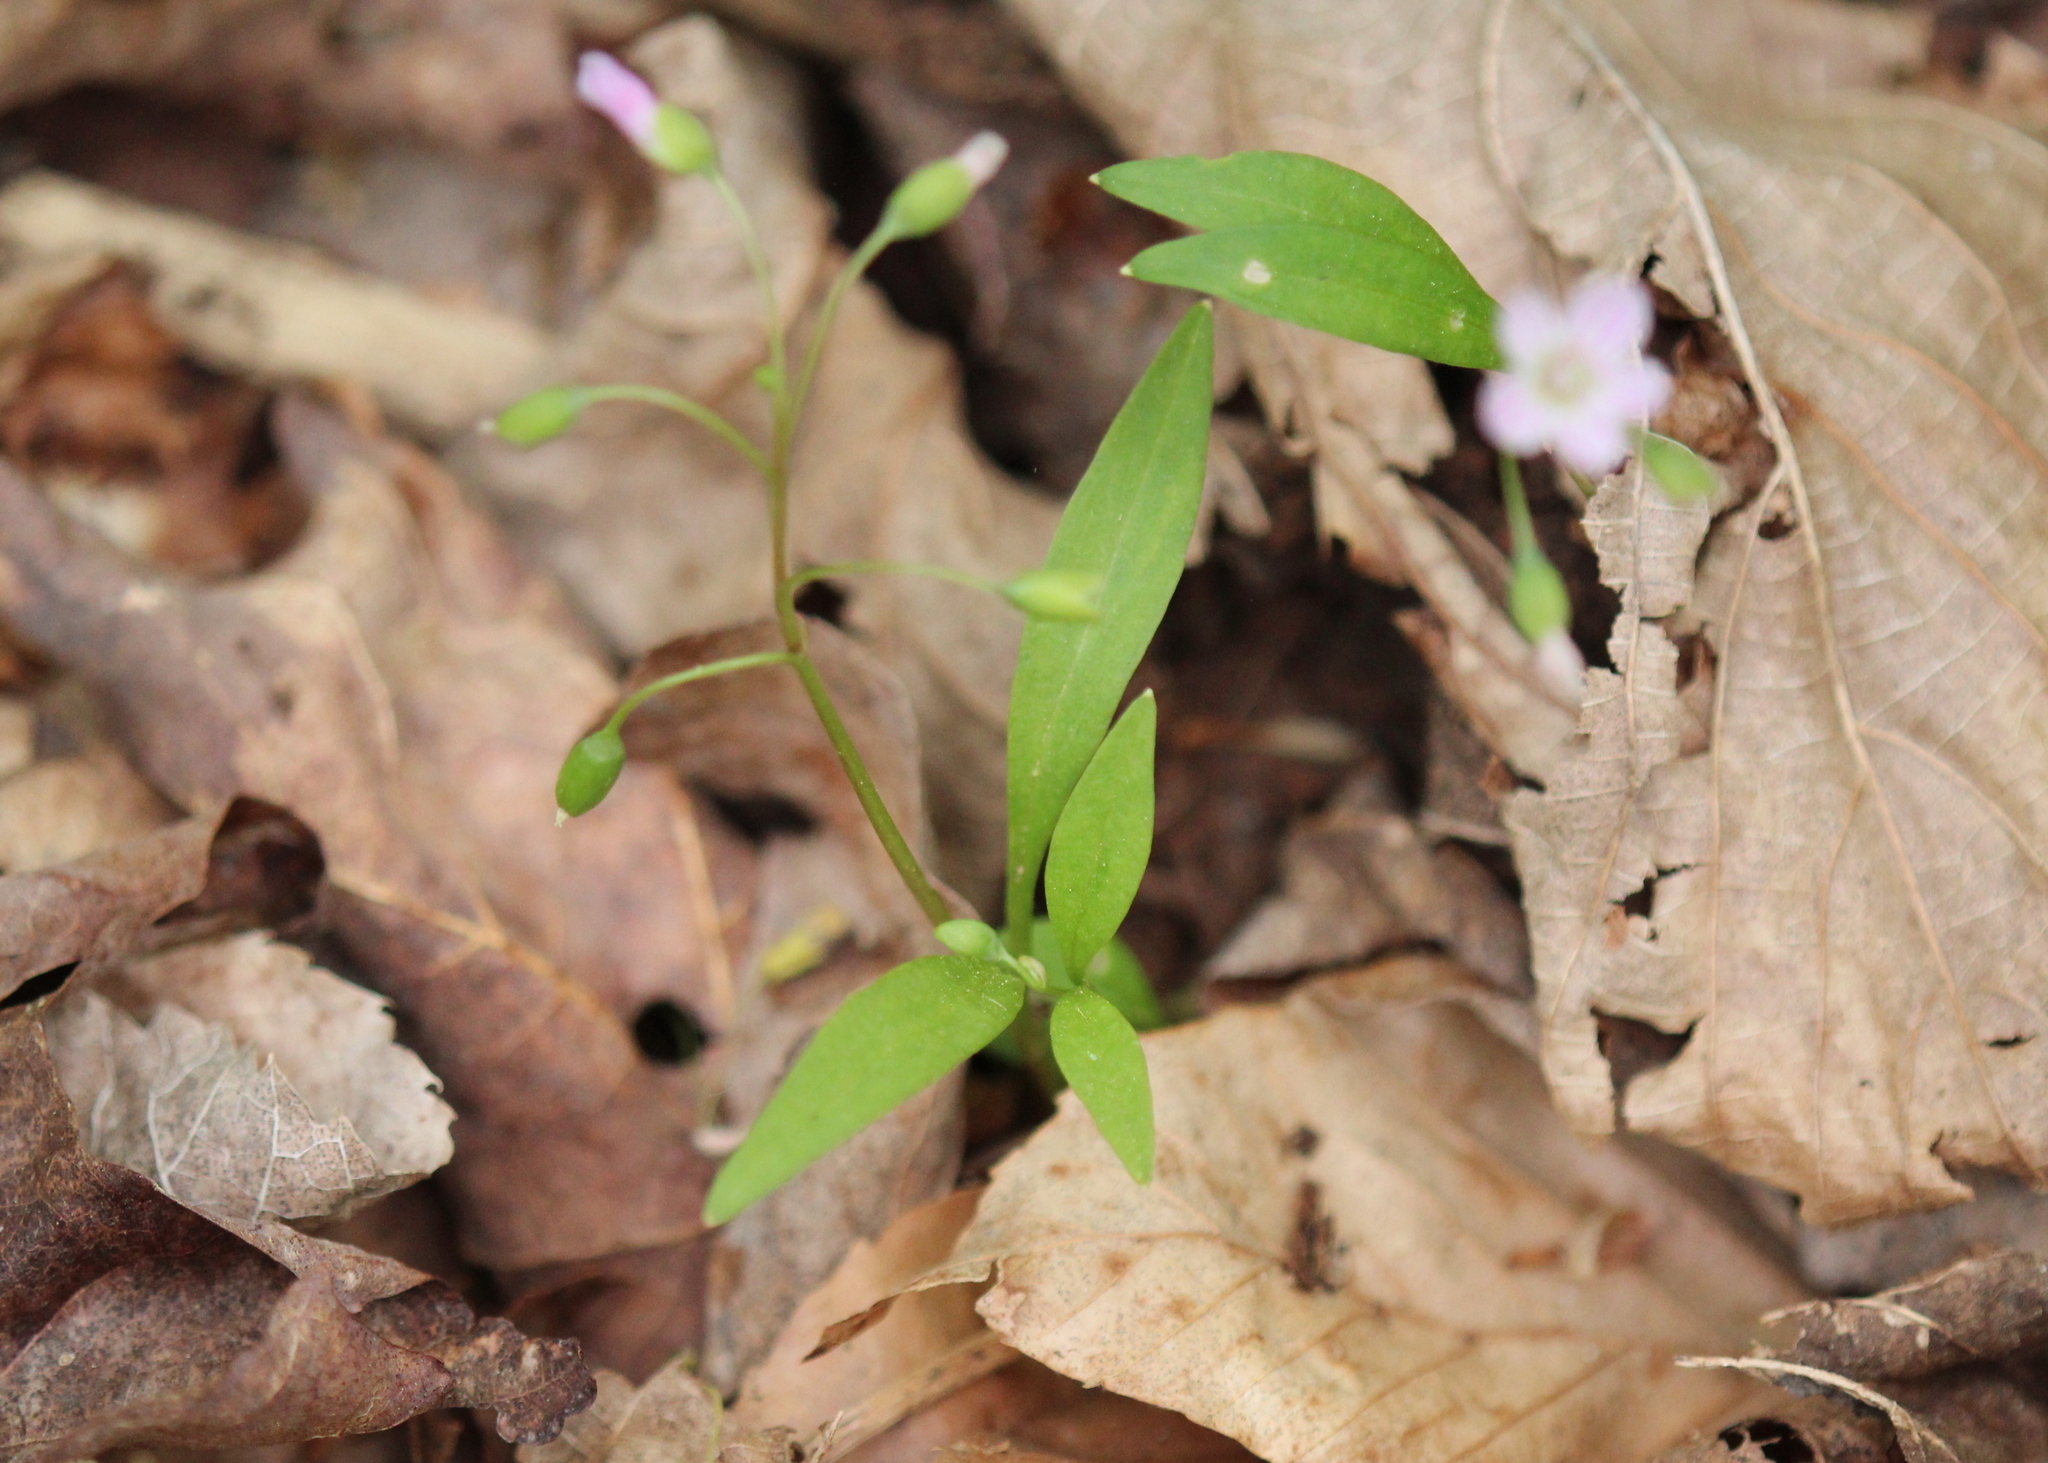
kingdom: Plantae
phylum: Tracheophyta
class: Magnoliopsida
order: Caryophyllales
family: Montiaceae
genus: Claytonia
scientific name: Claytonia caroliniana
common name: Carolina spring beauty
